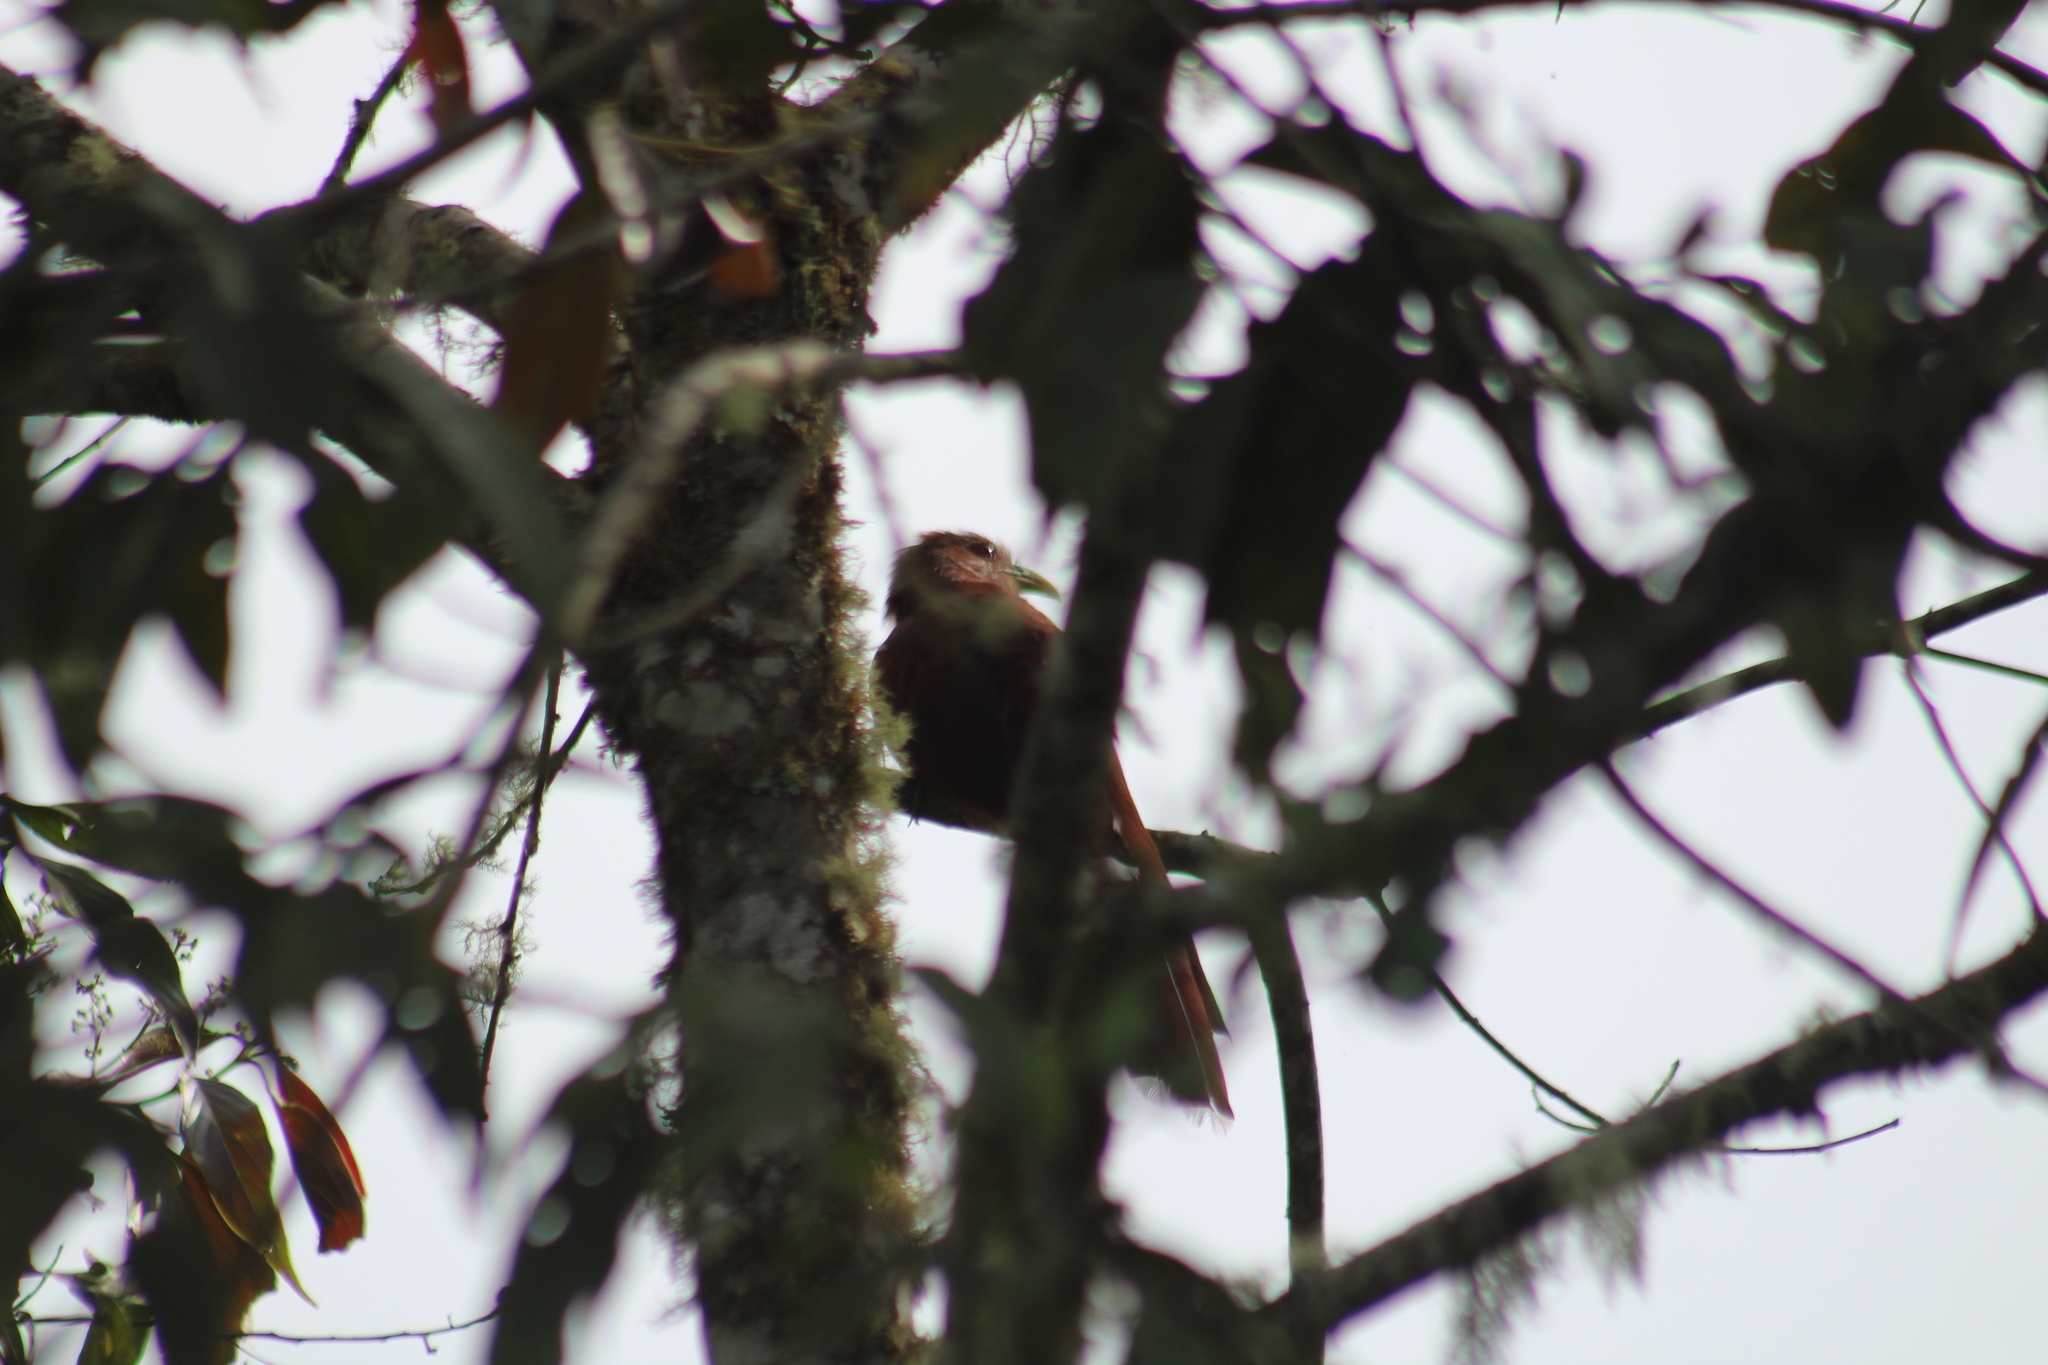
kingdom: Animalia
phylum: Chordata
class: Aves
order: Cuculiformes
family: Cuculidae
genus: Piaya
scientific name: Piaya cayana
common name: Squirrel cuckoo
